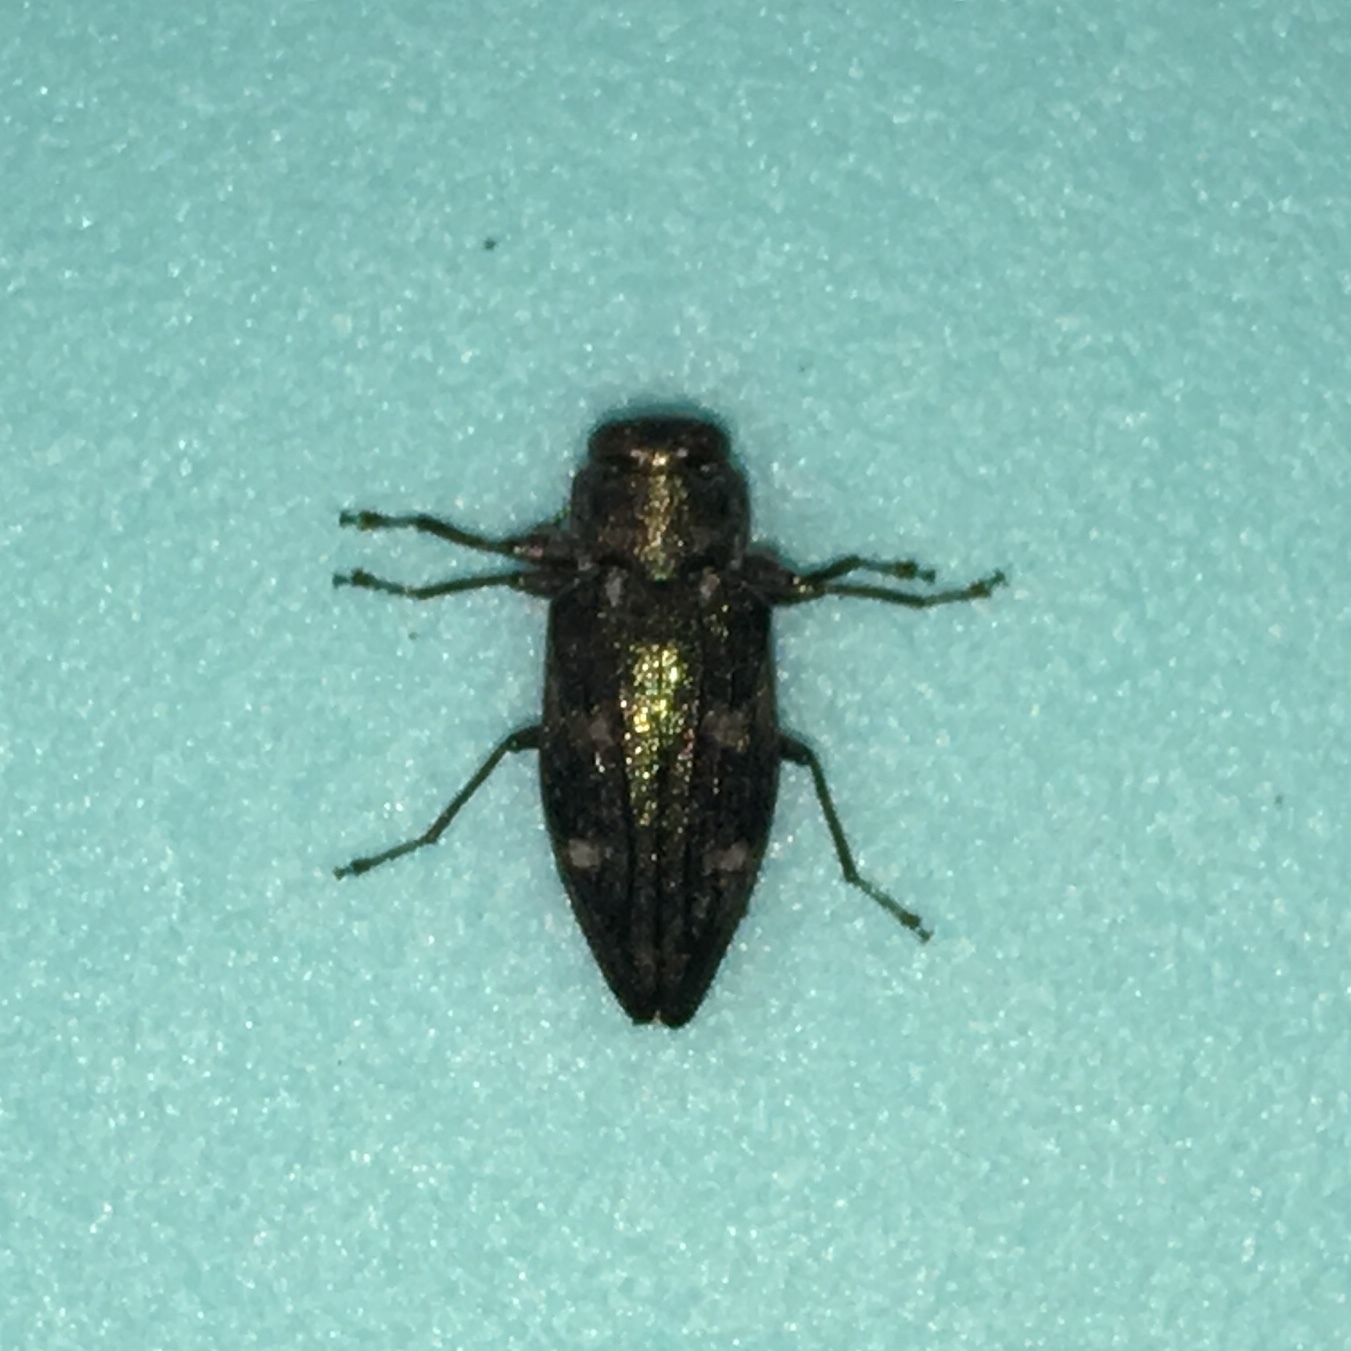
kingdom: Animalia
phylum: Arthropoda
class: Insecta
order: Coleoptera
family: Buprestidae
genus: Chrysobothris
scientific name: Chrysobothris sexsignata
